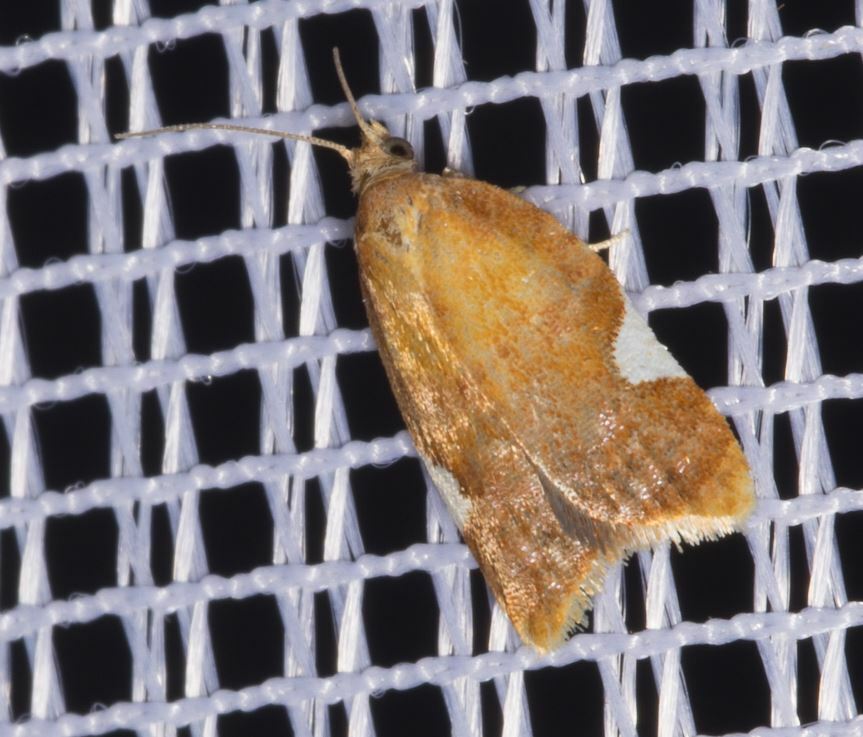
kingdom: Animalia
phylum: Arthropoda
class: Insecta
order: Lepidoptera
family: Tortricidae
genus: Acleris
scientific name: Acleris holmiana
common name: Golden leafroller moth
